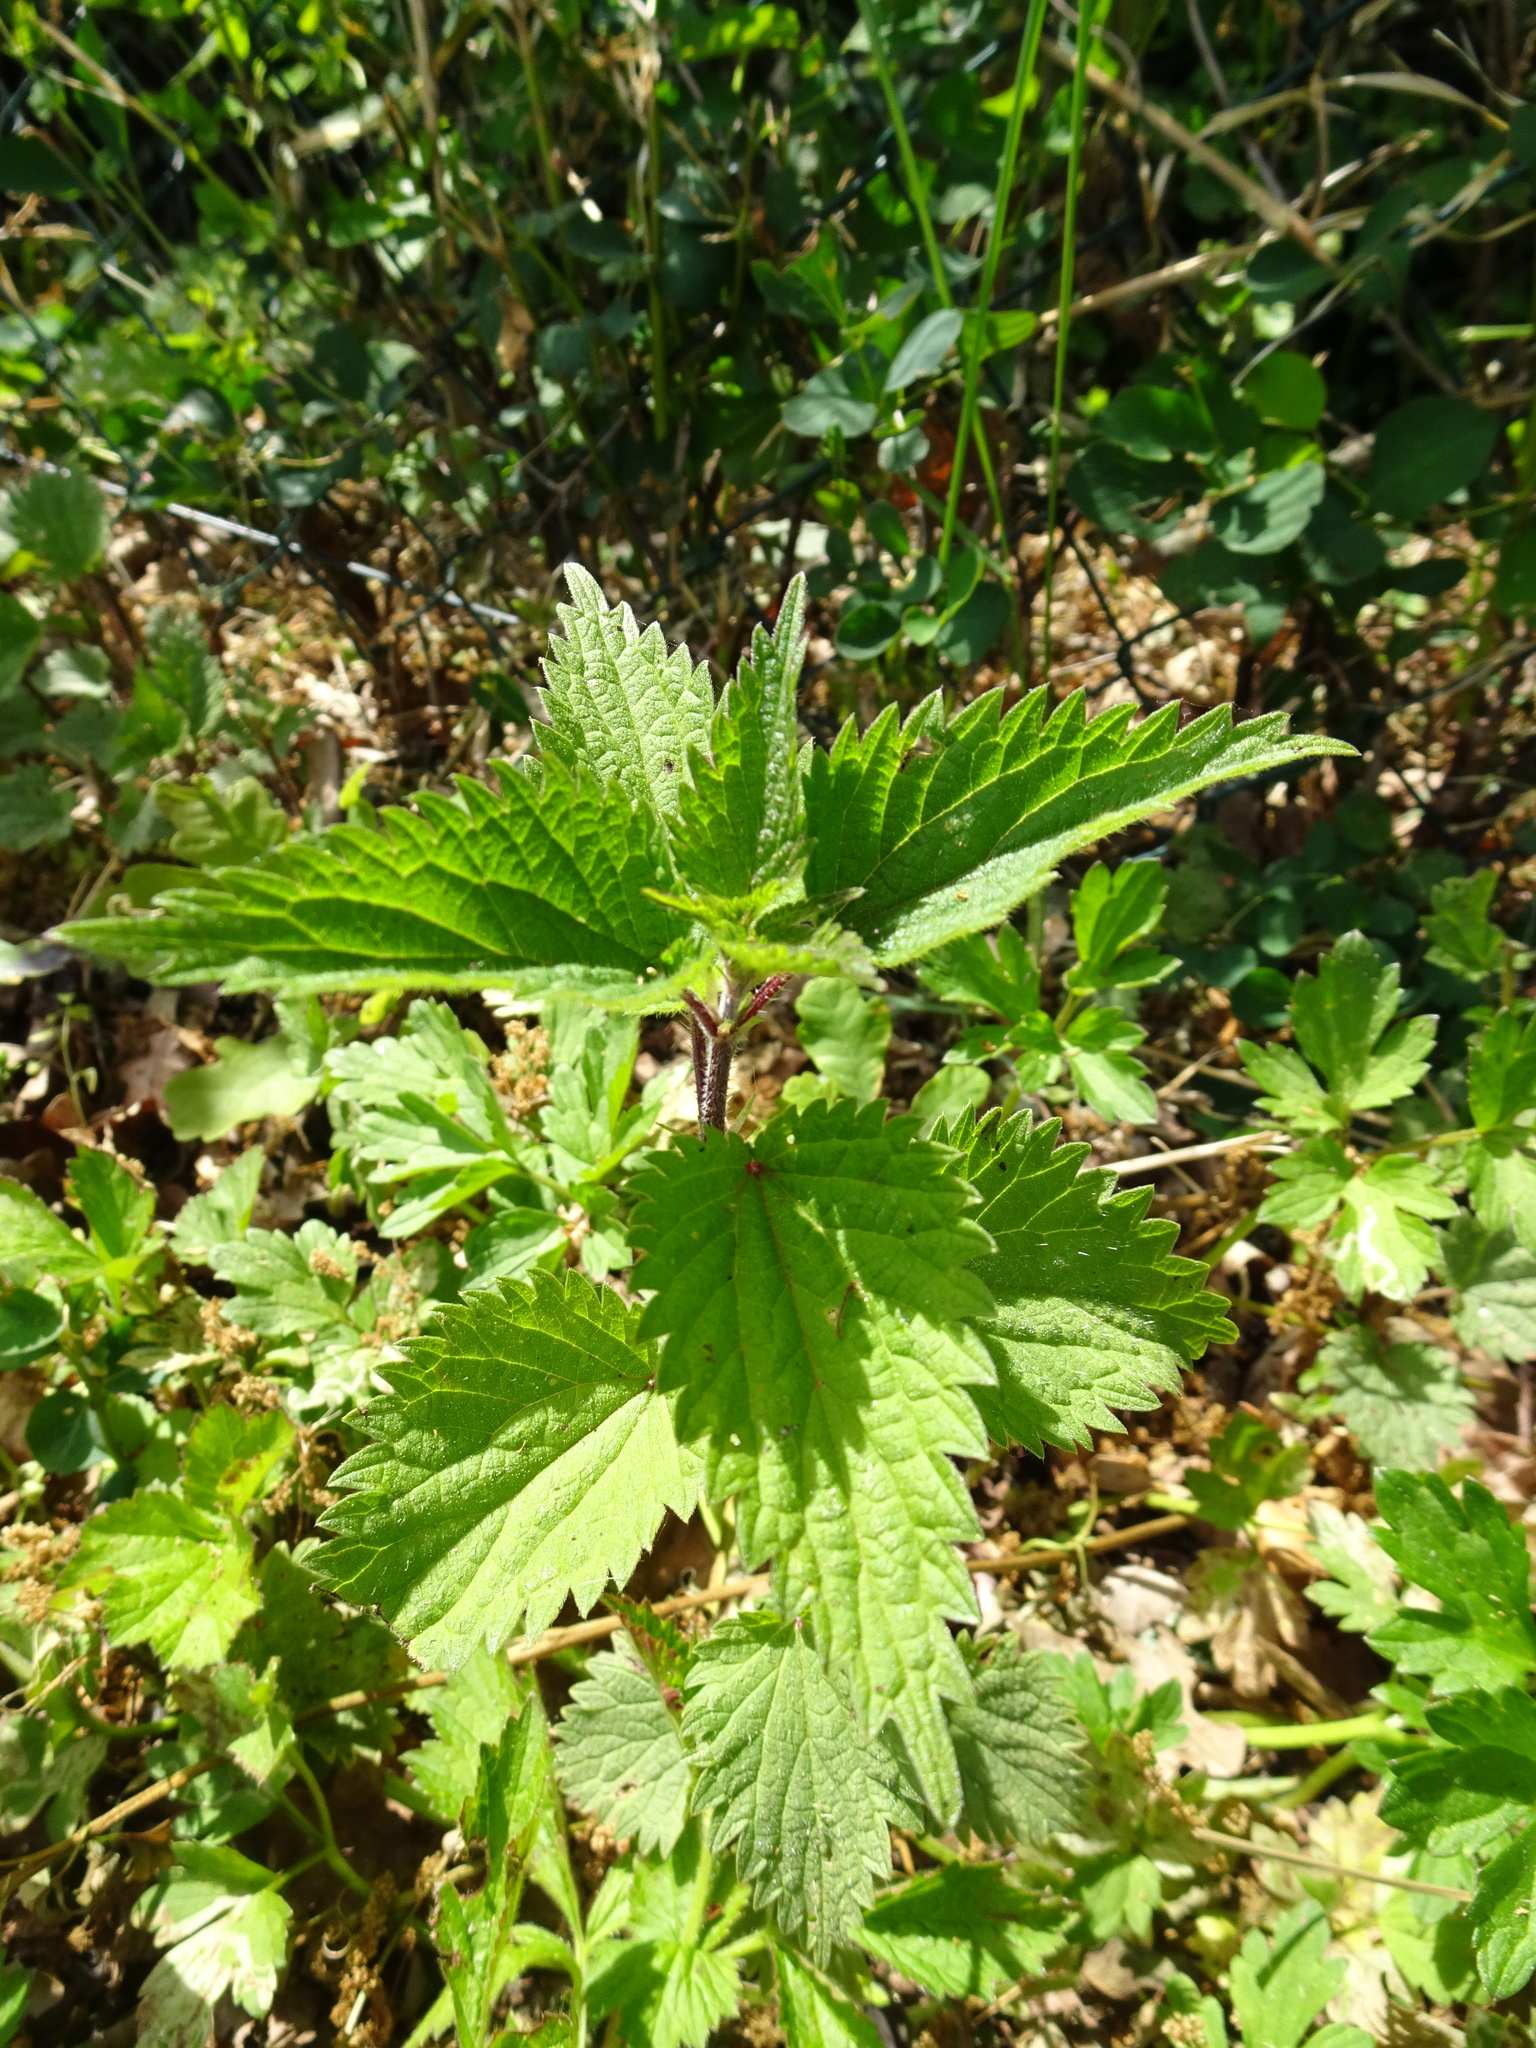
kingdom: Plantae
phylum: Tracheophyta
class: Magnoliopsida
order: Rosales
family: Urticaceae
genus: Urtica
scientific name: Urtica dioica
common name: Common nettle
